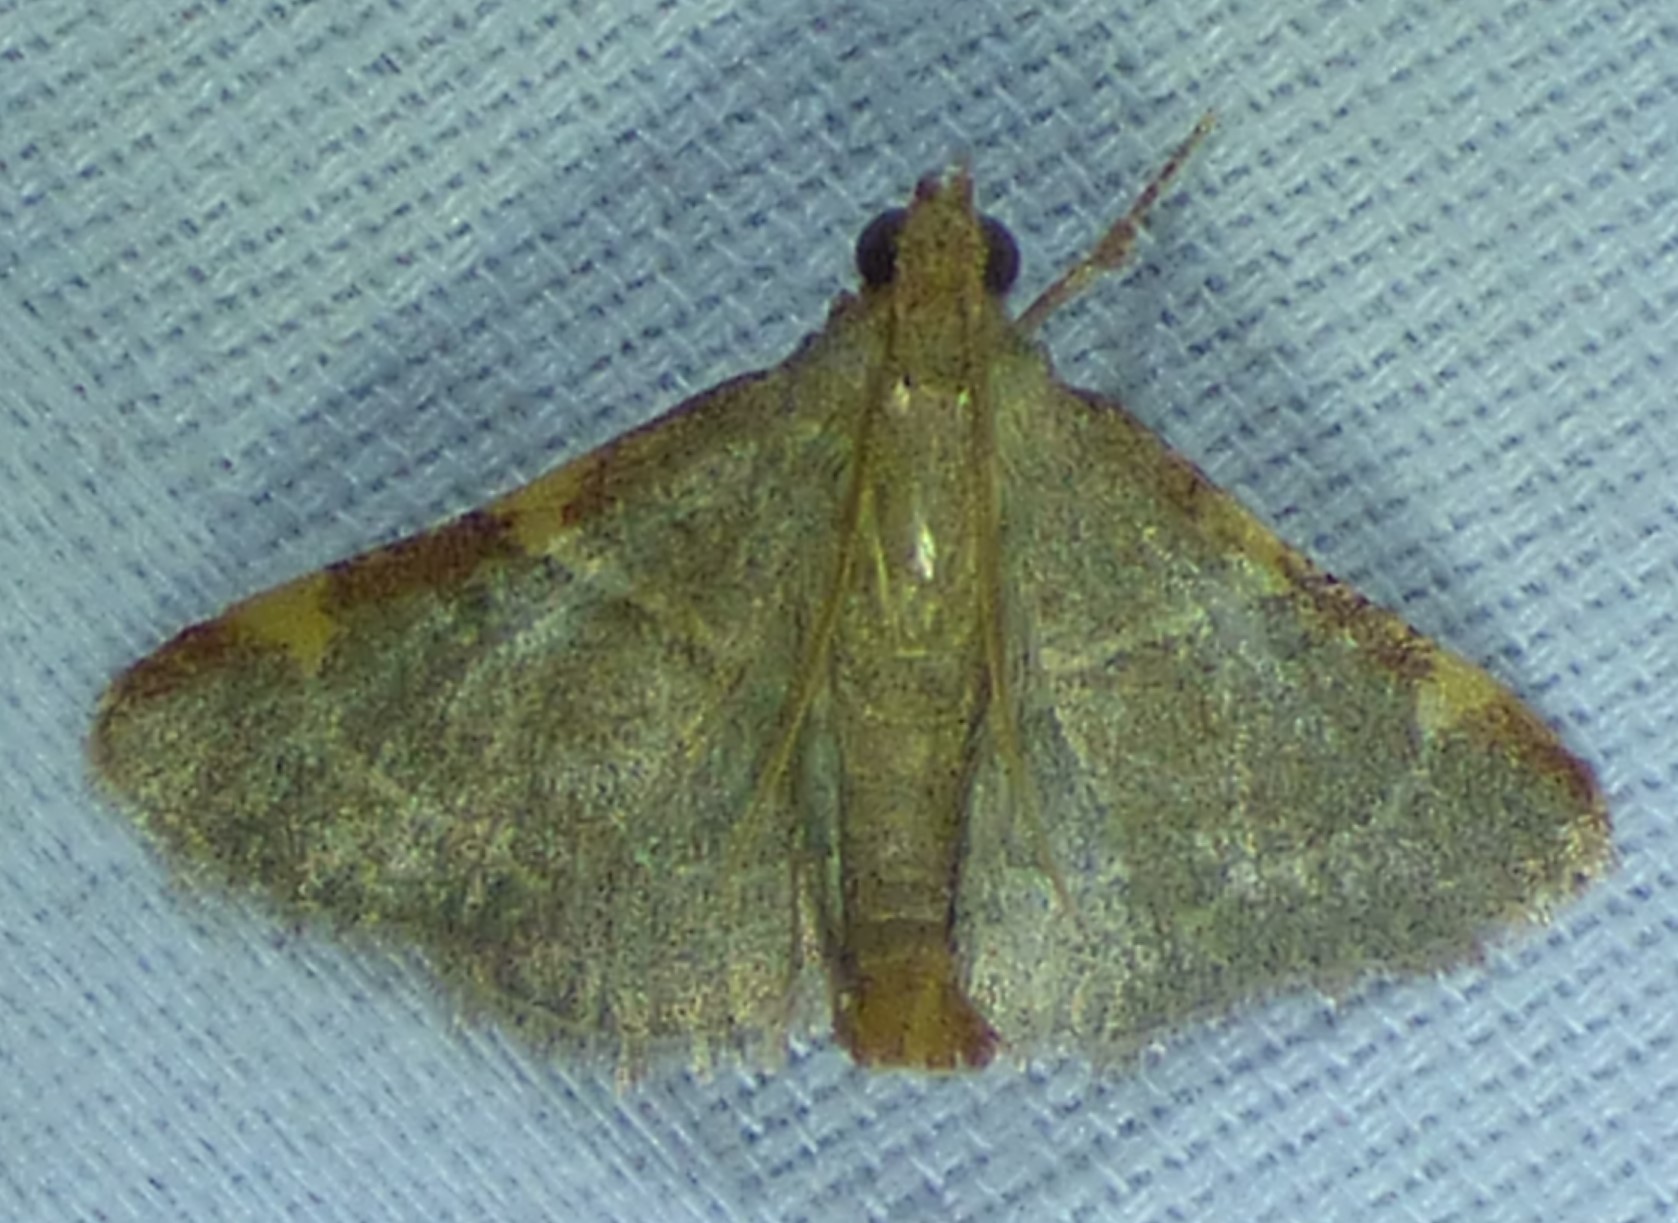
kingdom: Animalia
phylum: Arthropoda
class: Insecta
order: Lepidoptera
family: Pyralidae
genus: Hypsopygia
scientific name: Hypsopygia binodulalis
